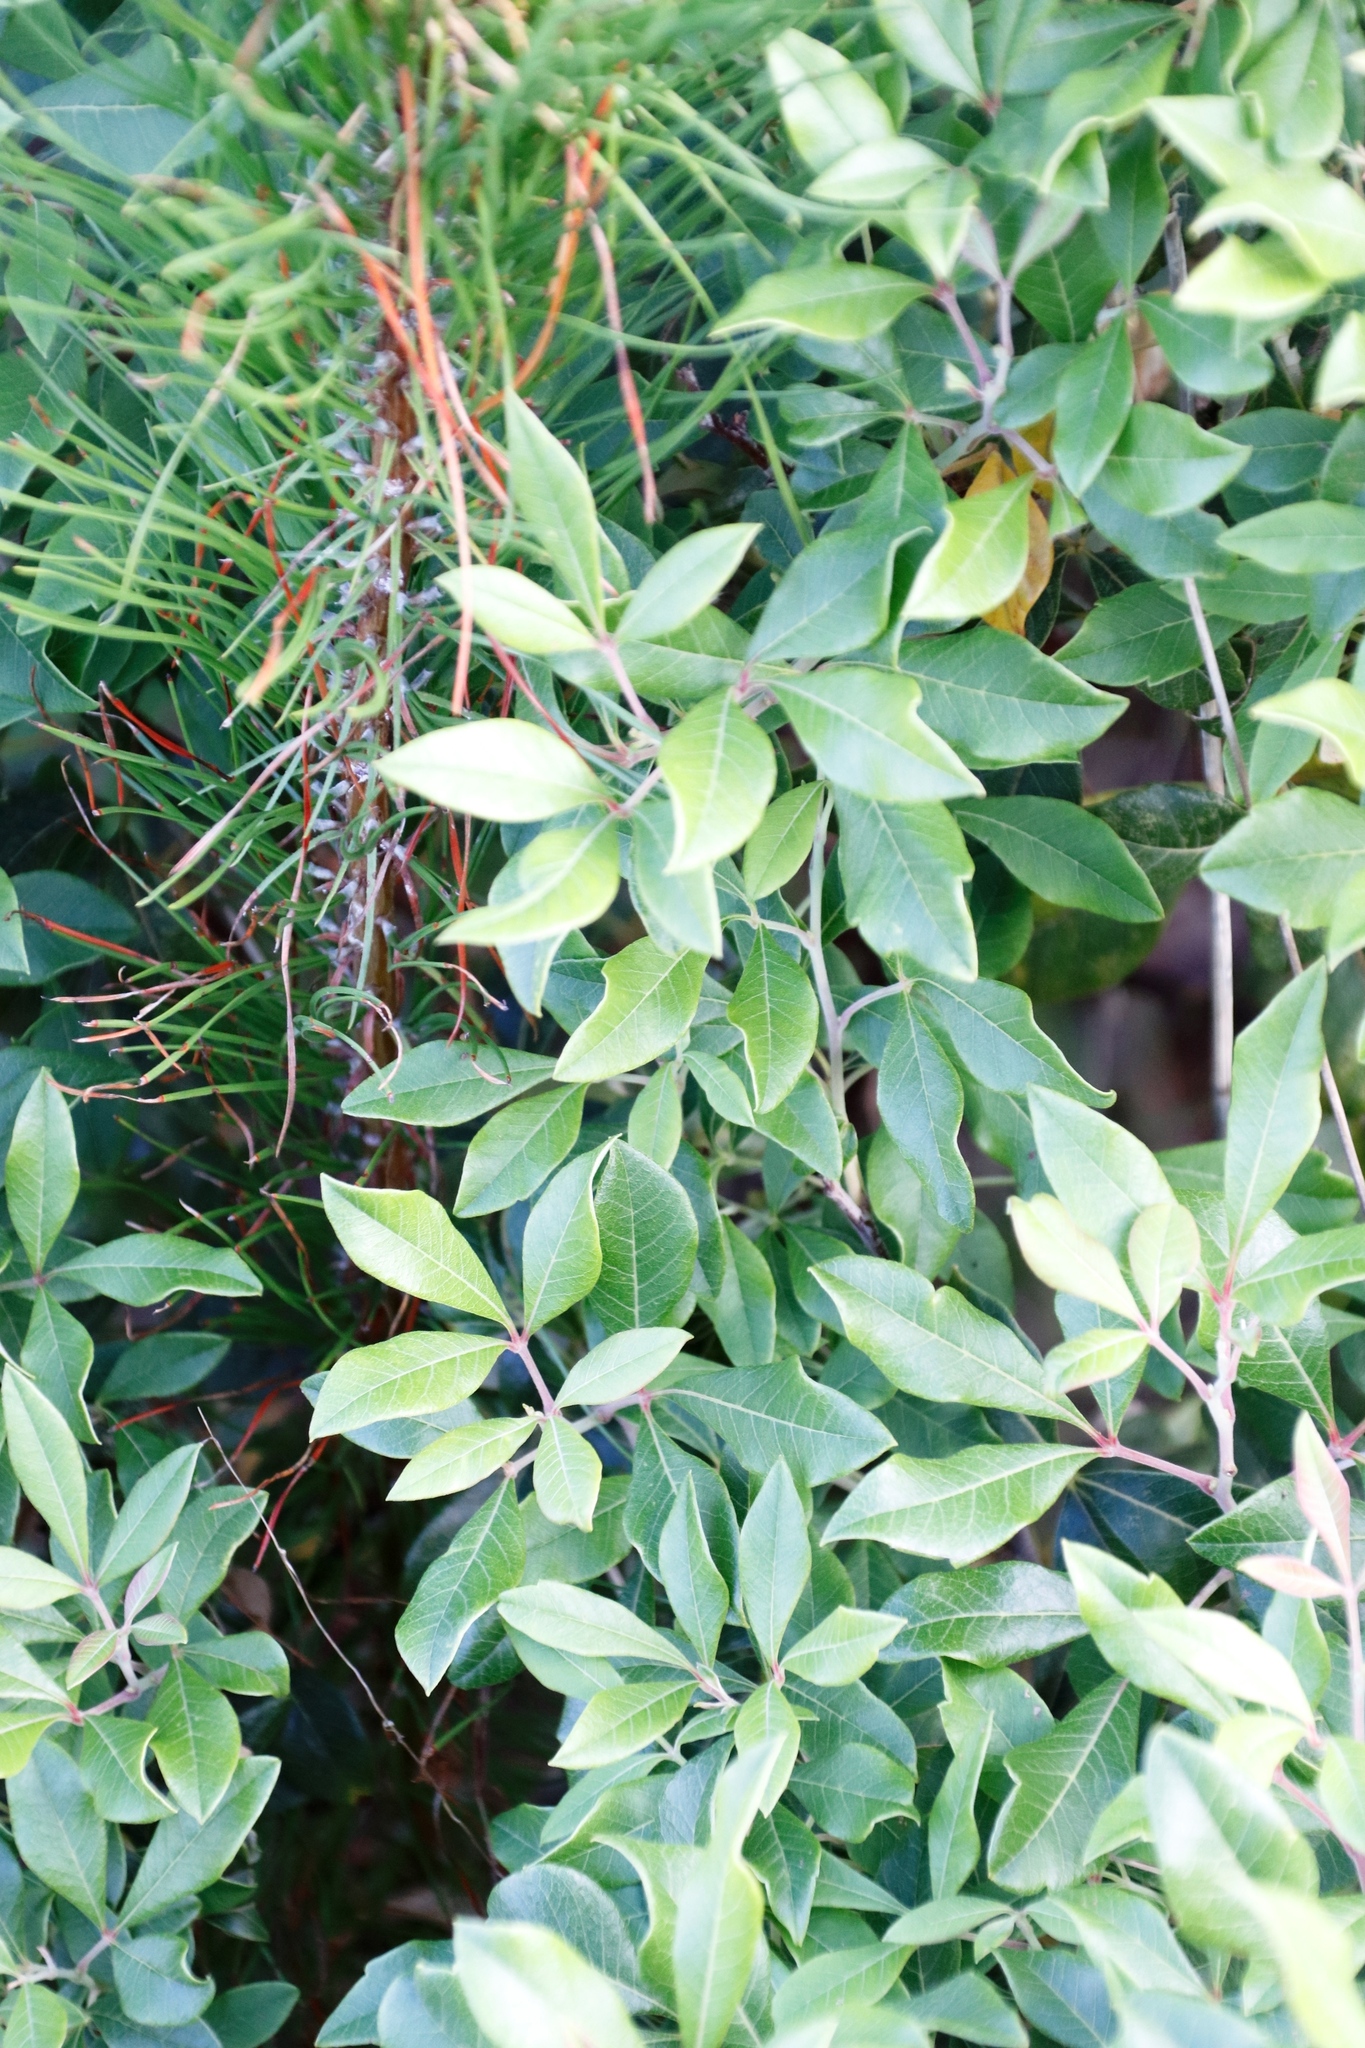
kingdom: Plantae
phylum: Tracheophyta
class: Magnoliopsida
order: Sapindales
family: Anacardiaceae
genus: Searsia
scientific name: Searsia tomentosa
